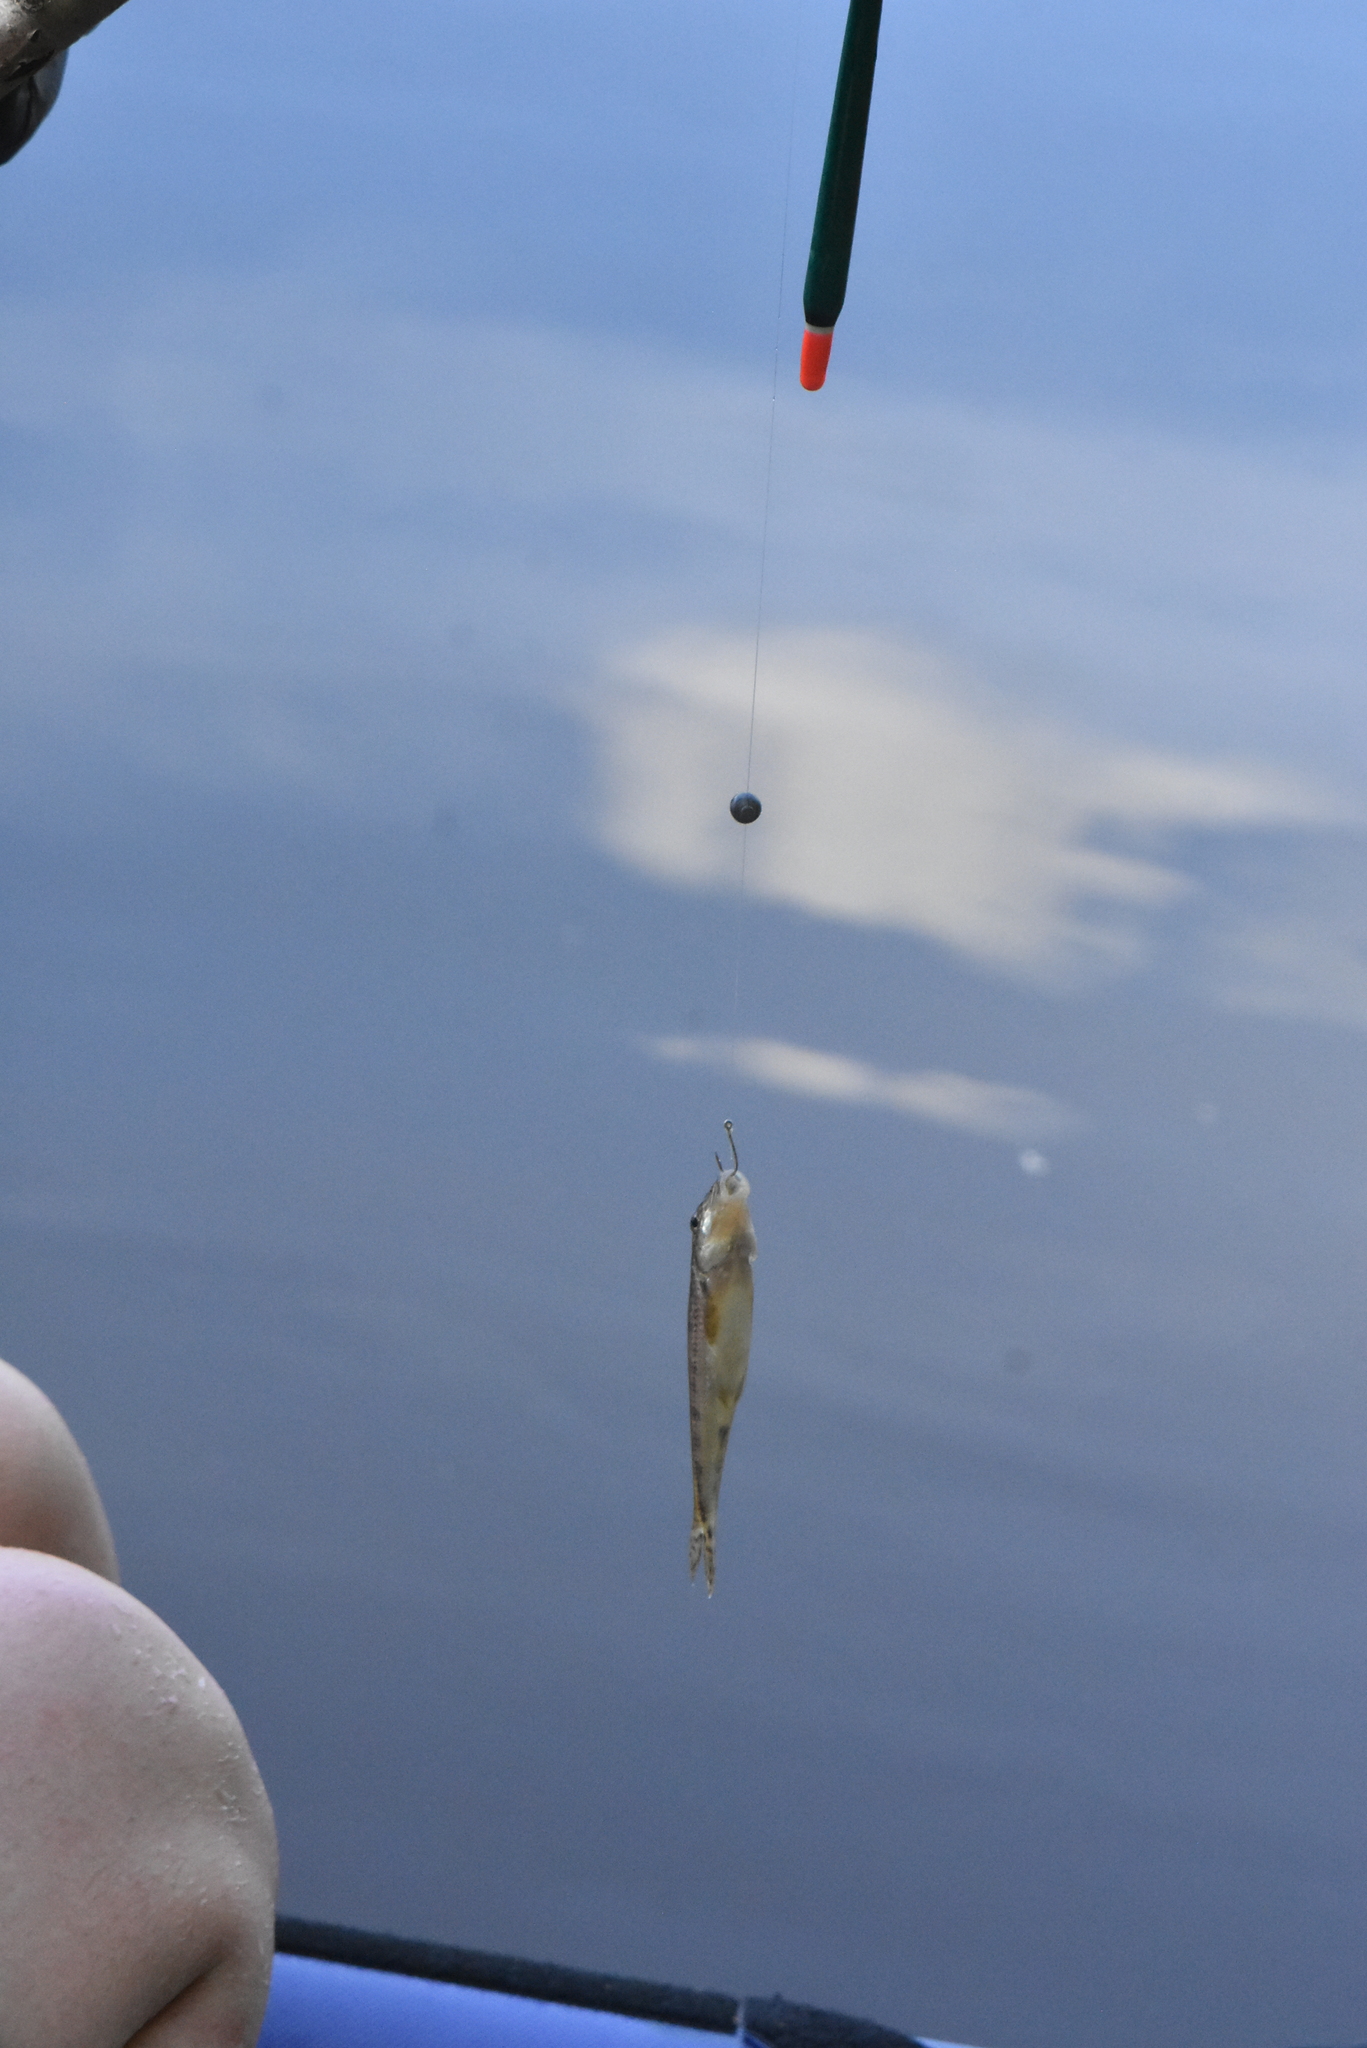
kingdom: Animalia
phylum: Chordata
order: Cypriniformes
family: Cyprinidae
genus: Gobio
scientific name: Gobio gobio
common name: Gudgeon
